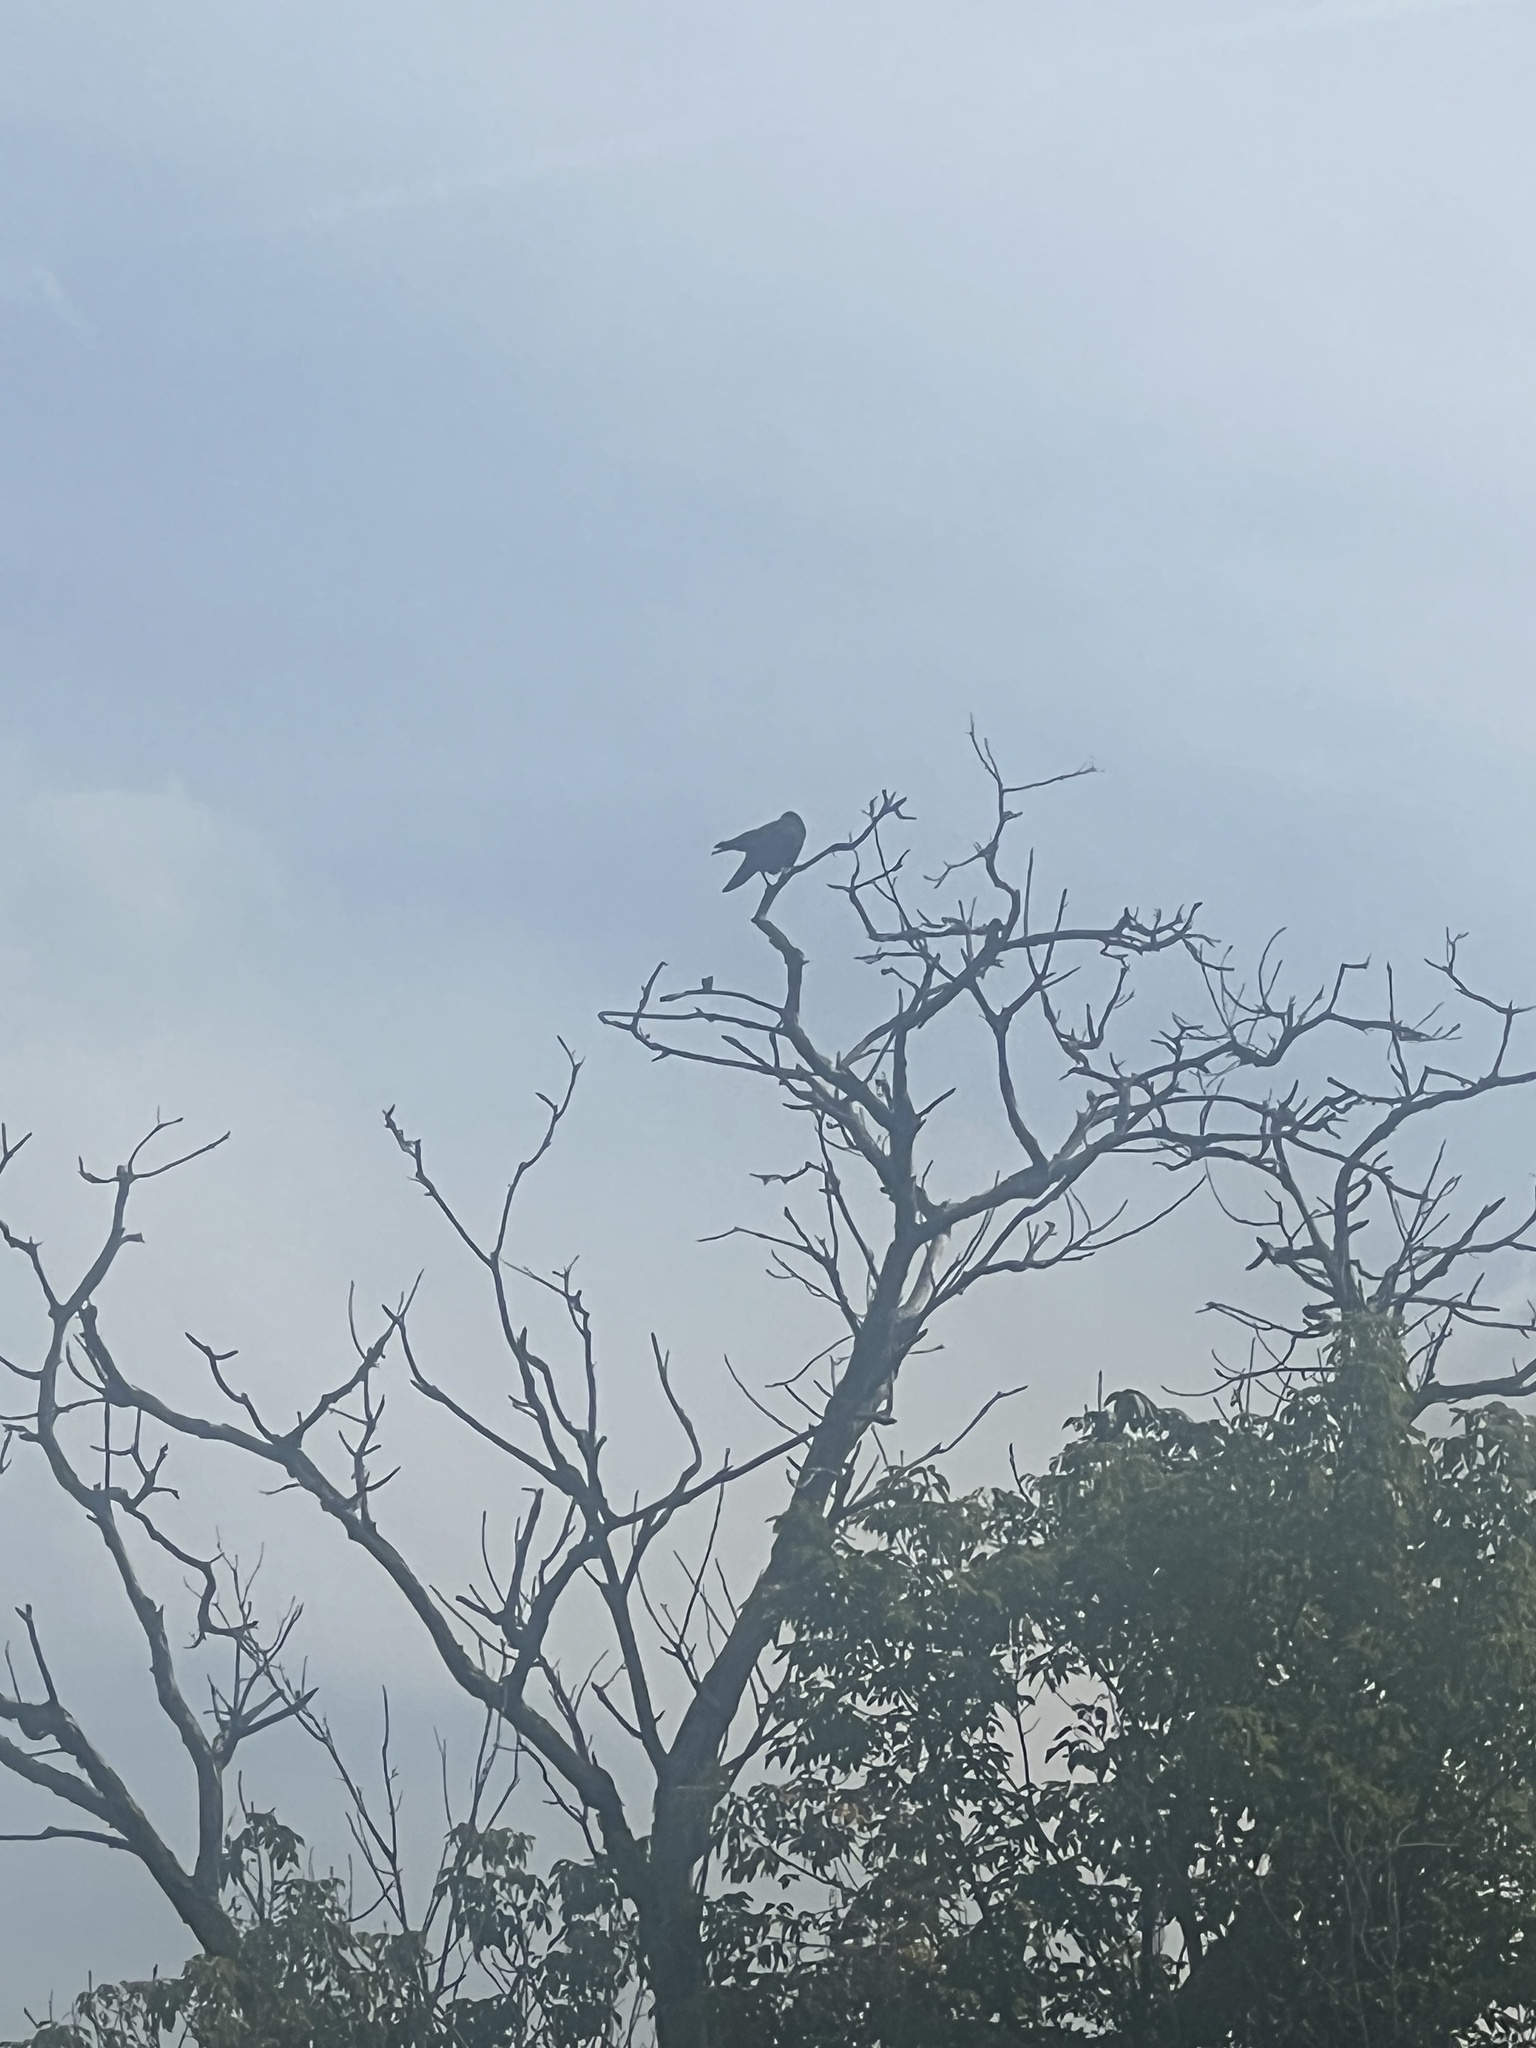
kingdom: Animalia
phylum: Chordata
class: Aves
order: Passeriformes
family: Corvidae
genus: Corvus
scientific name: Corvus brachyrhynchos
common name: American crow
